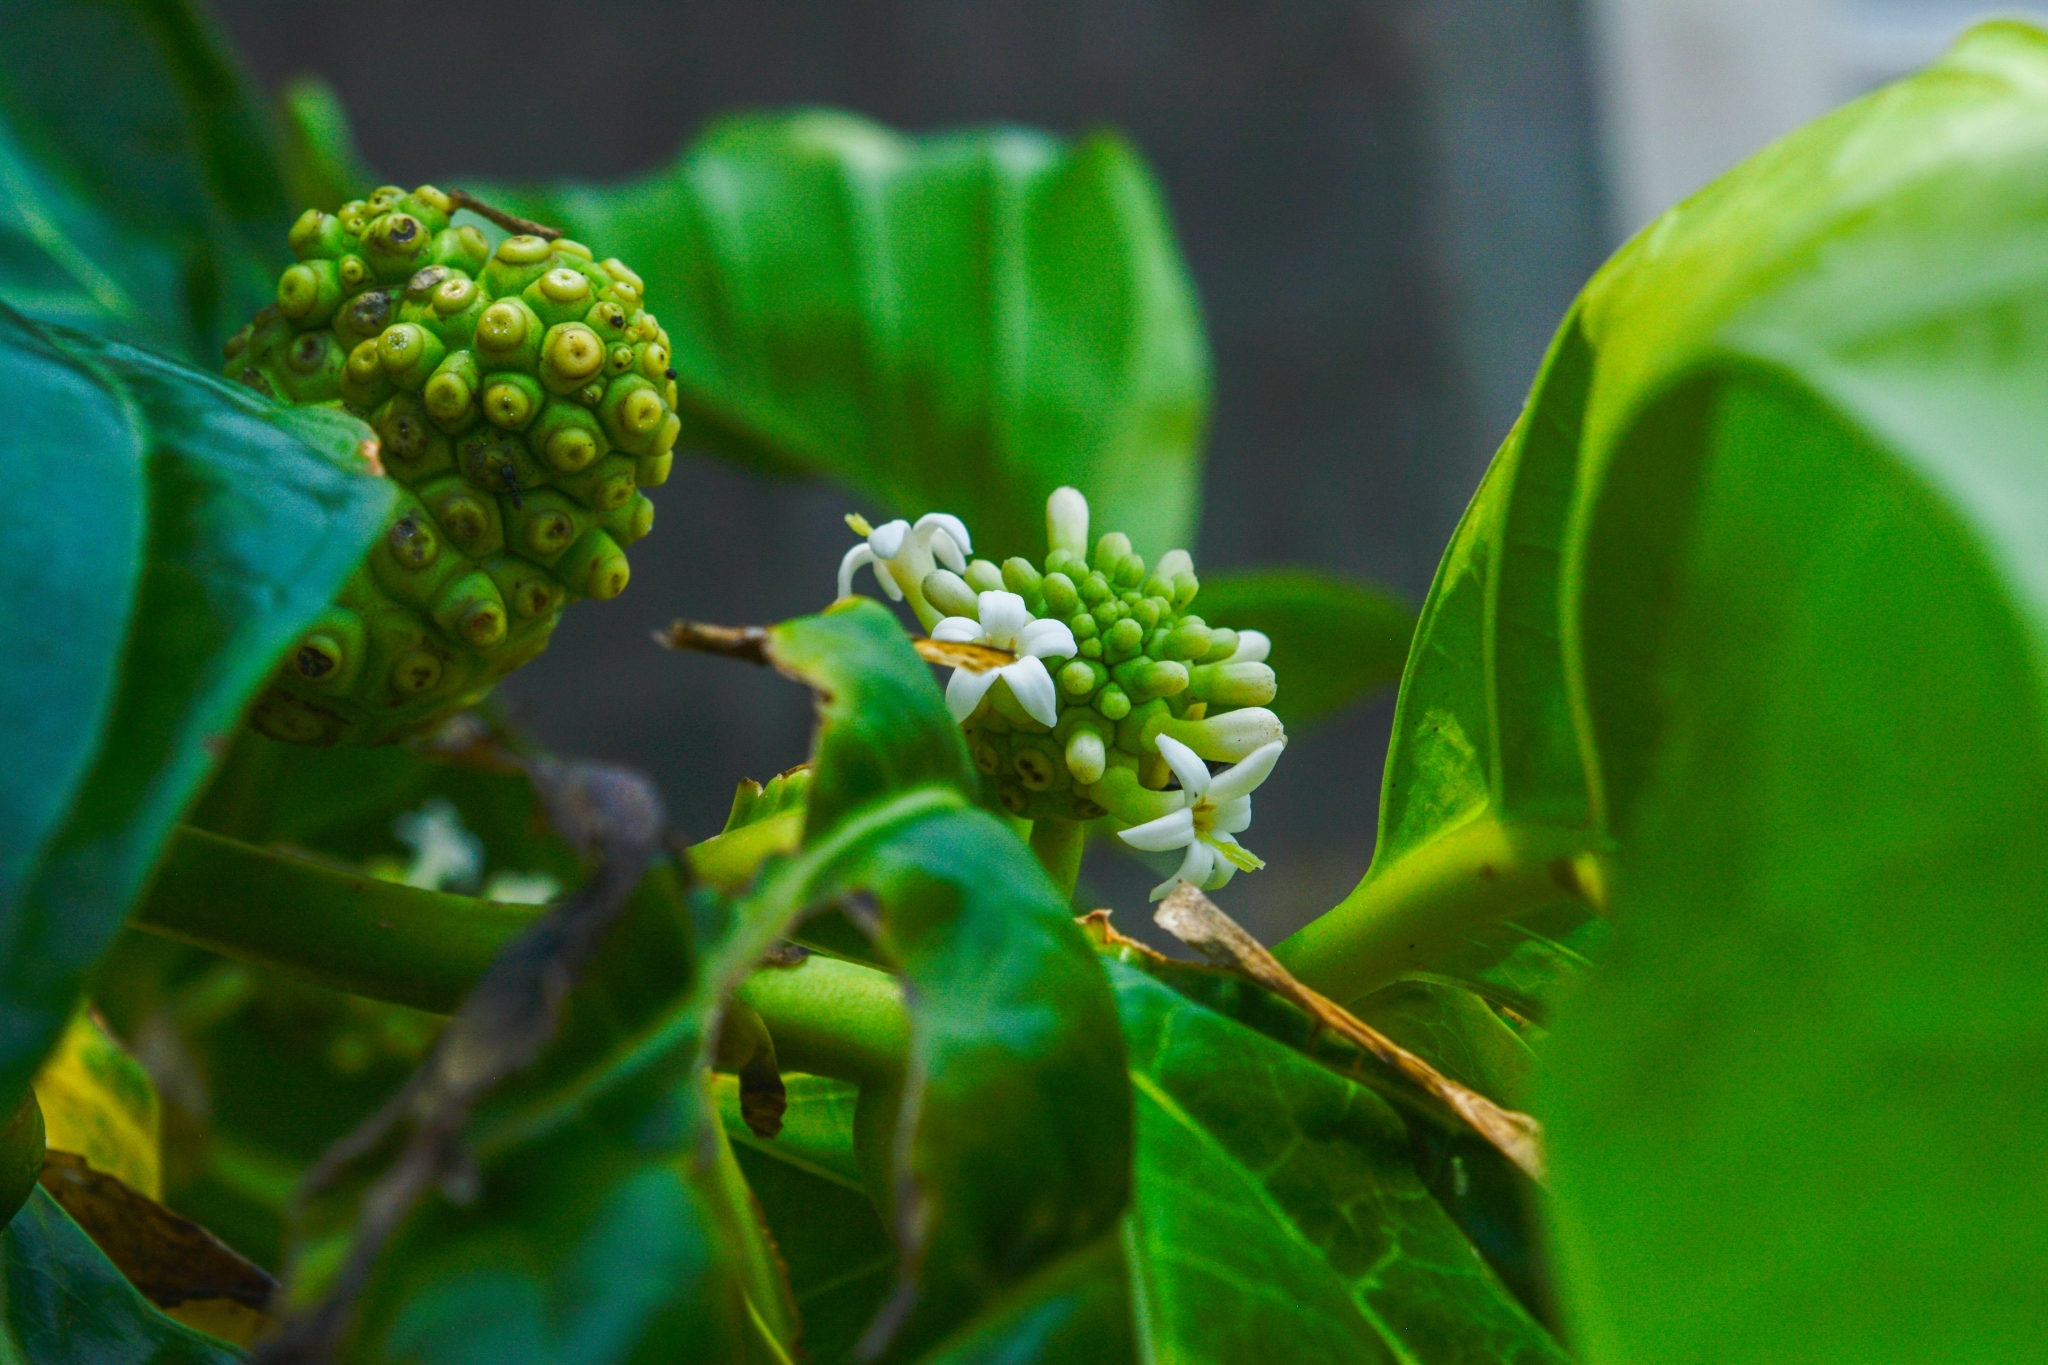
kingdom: Plantae
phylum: Tracheophyta
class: Magnoliopsida
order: Gentianales
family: Rubiaceae
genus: Morinda
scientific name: Morinda citrifolia
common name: Indian-mulberry
